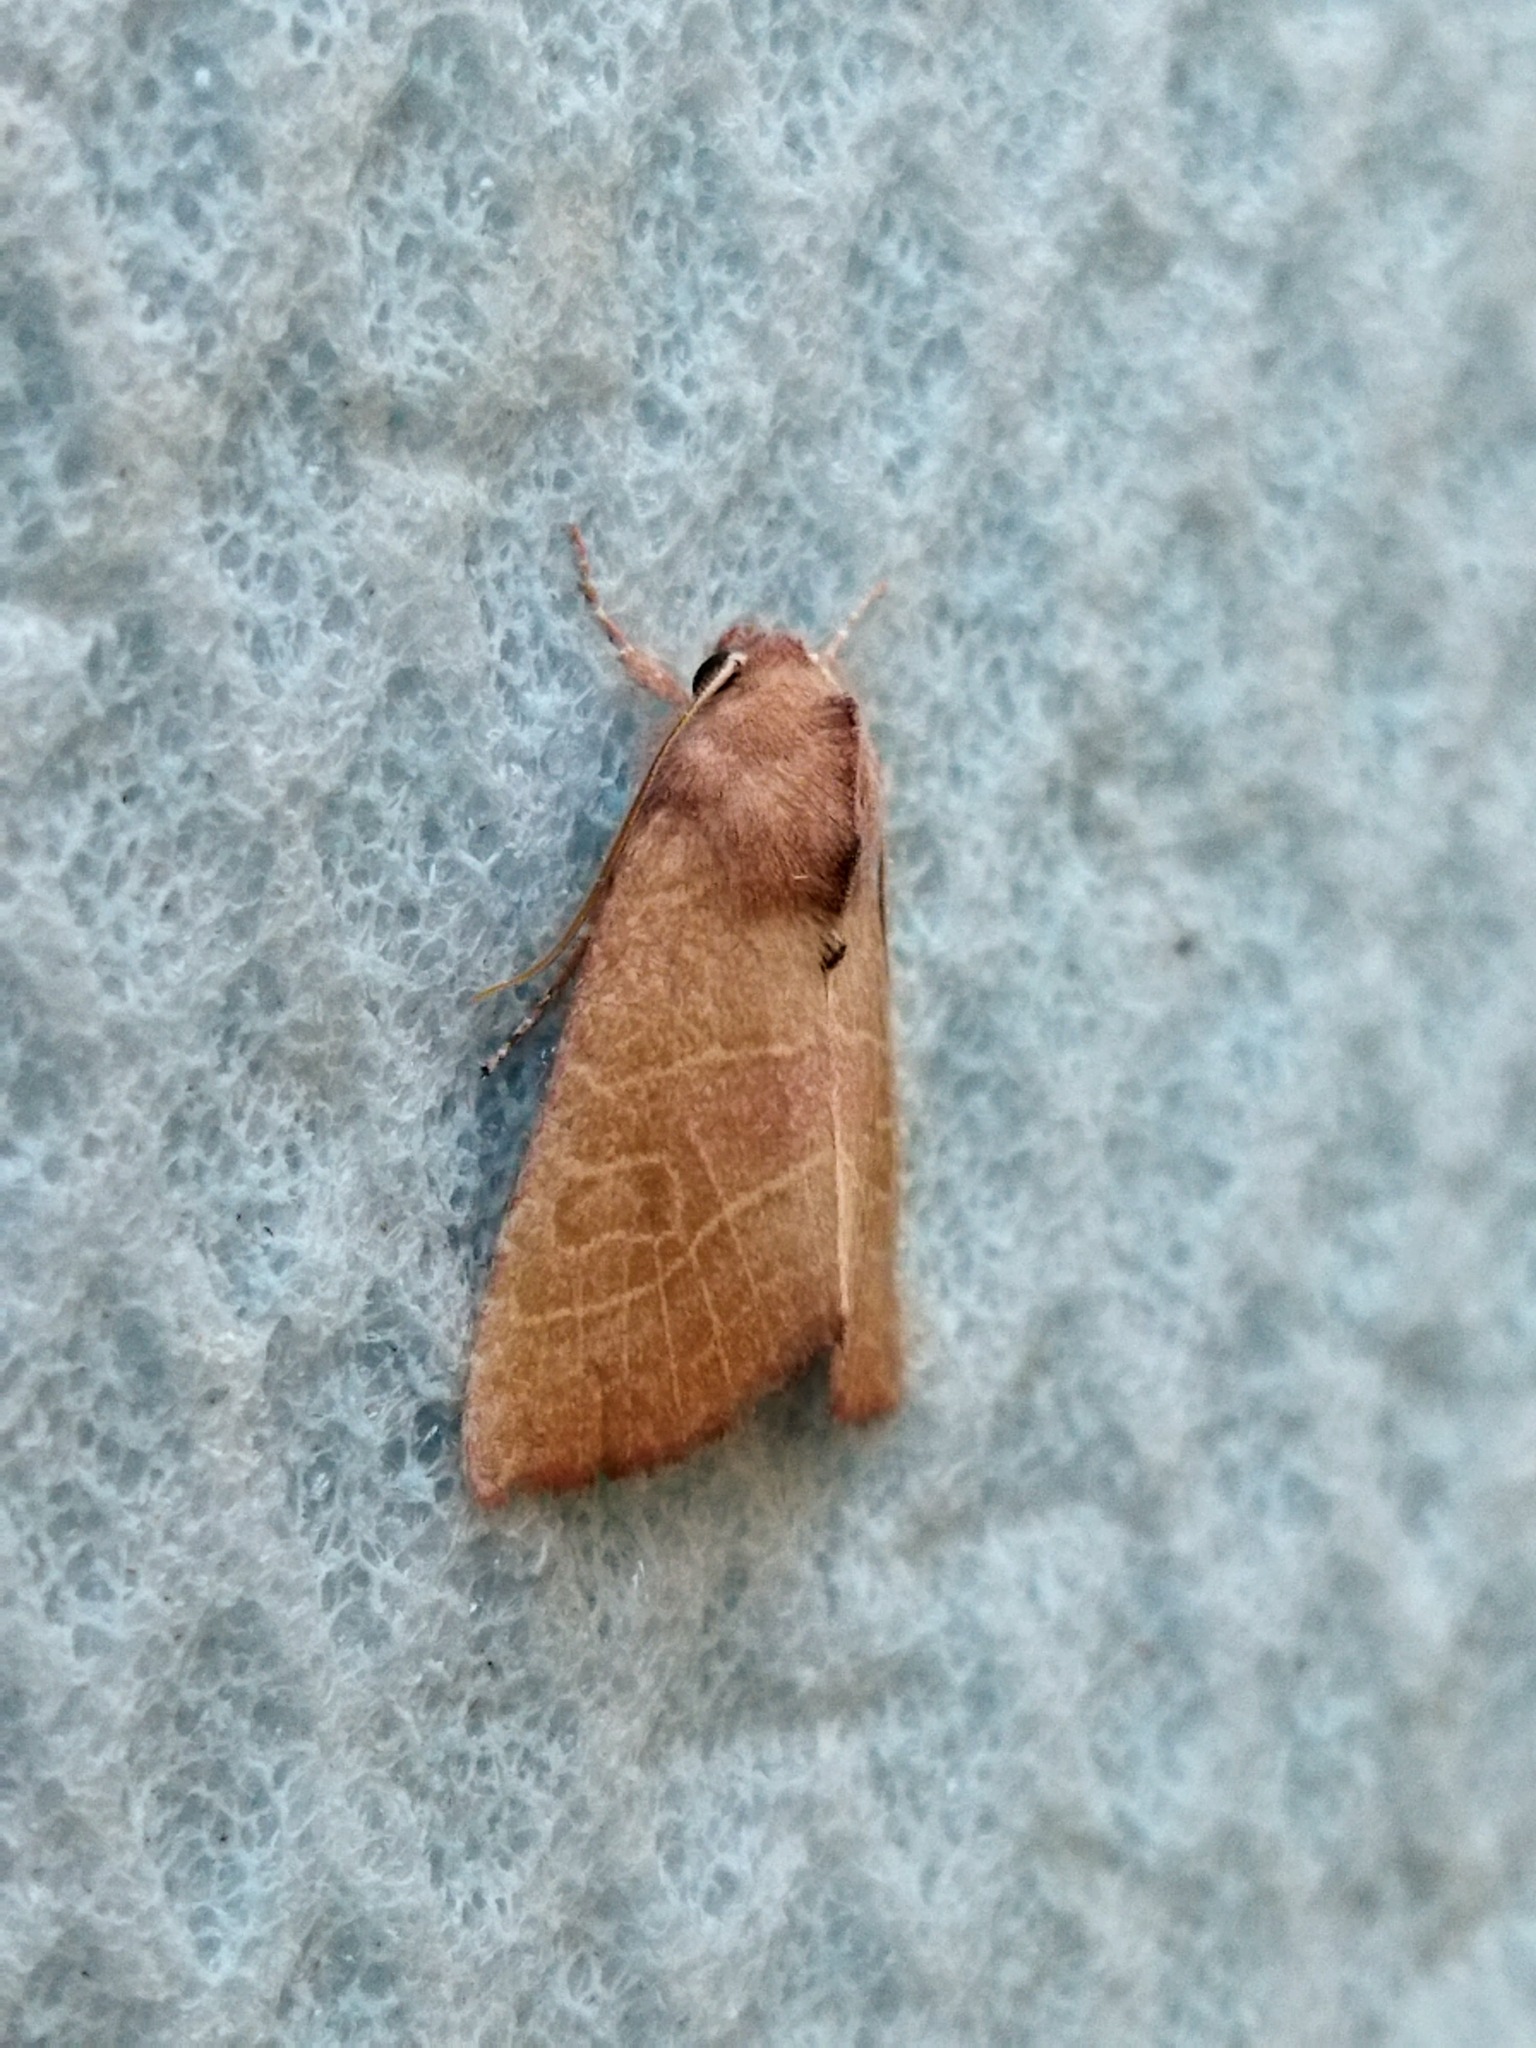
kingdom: Animalia
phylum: Arthropoda
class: Insecta
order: Lepidoptera
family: Noctuidae
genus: Atethmia
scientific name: Atethmia ambusta
